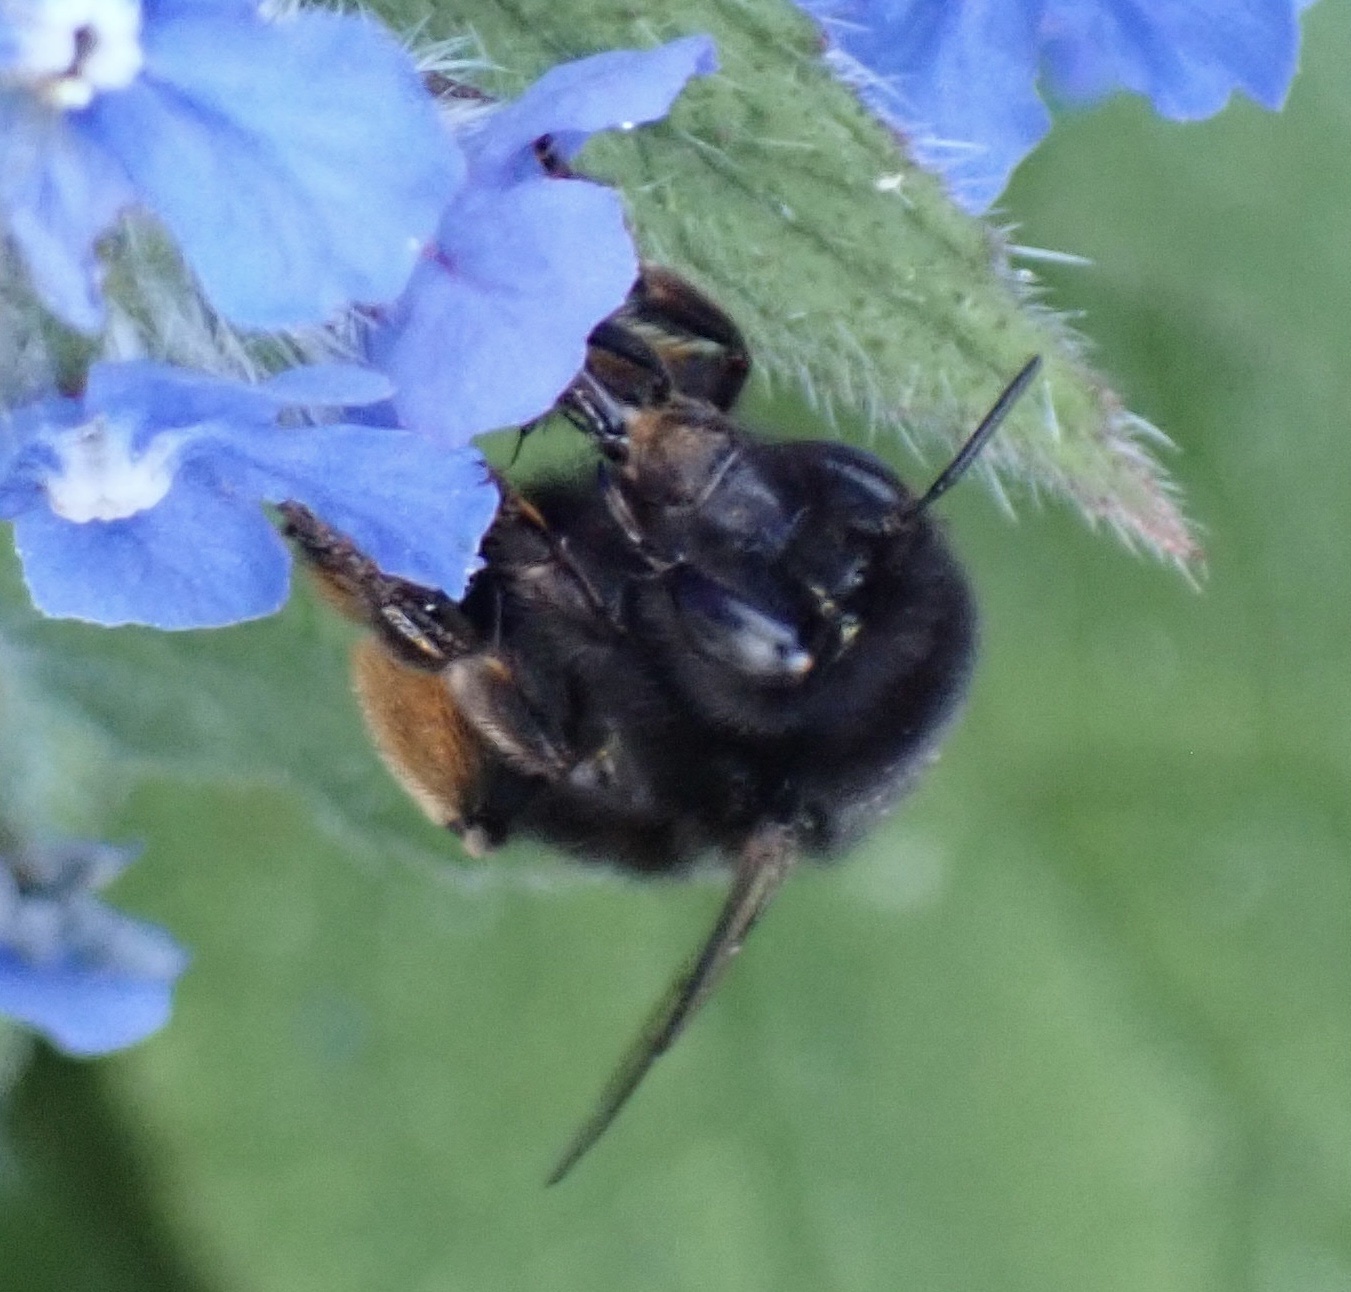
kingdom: Animalia
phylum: Arthropoda
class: Insecta
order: Hymenoptera
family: Apidae
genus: Anthophora
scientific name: Anthophora plumipes
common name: Hairy-footed flower bee
